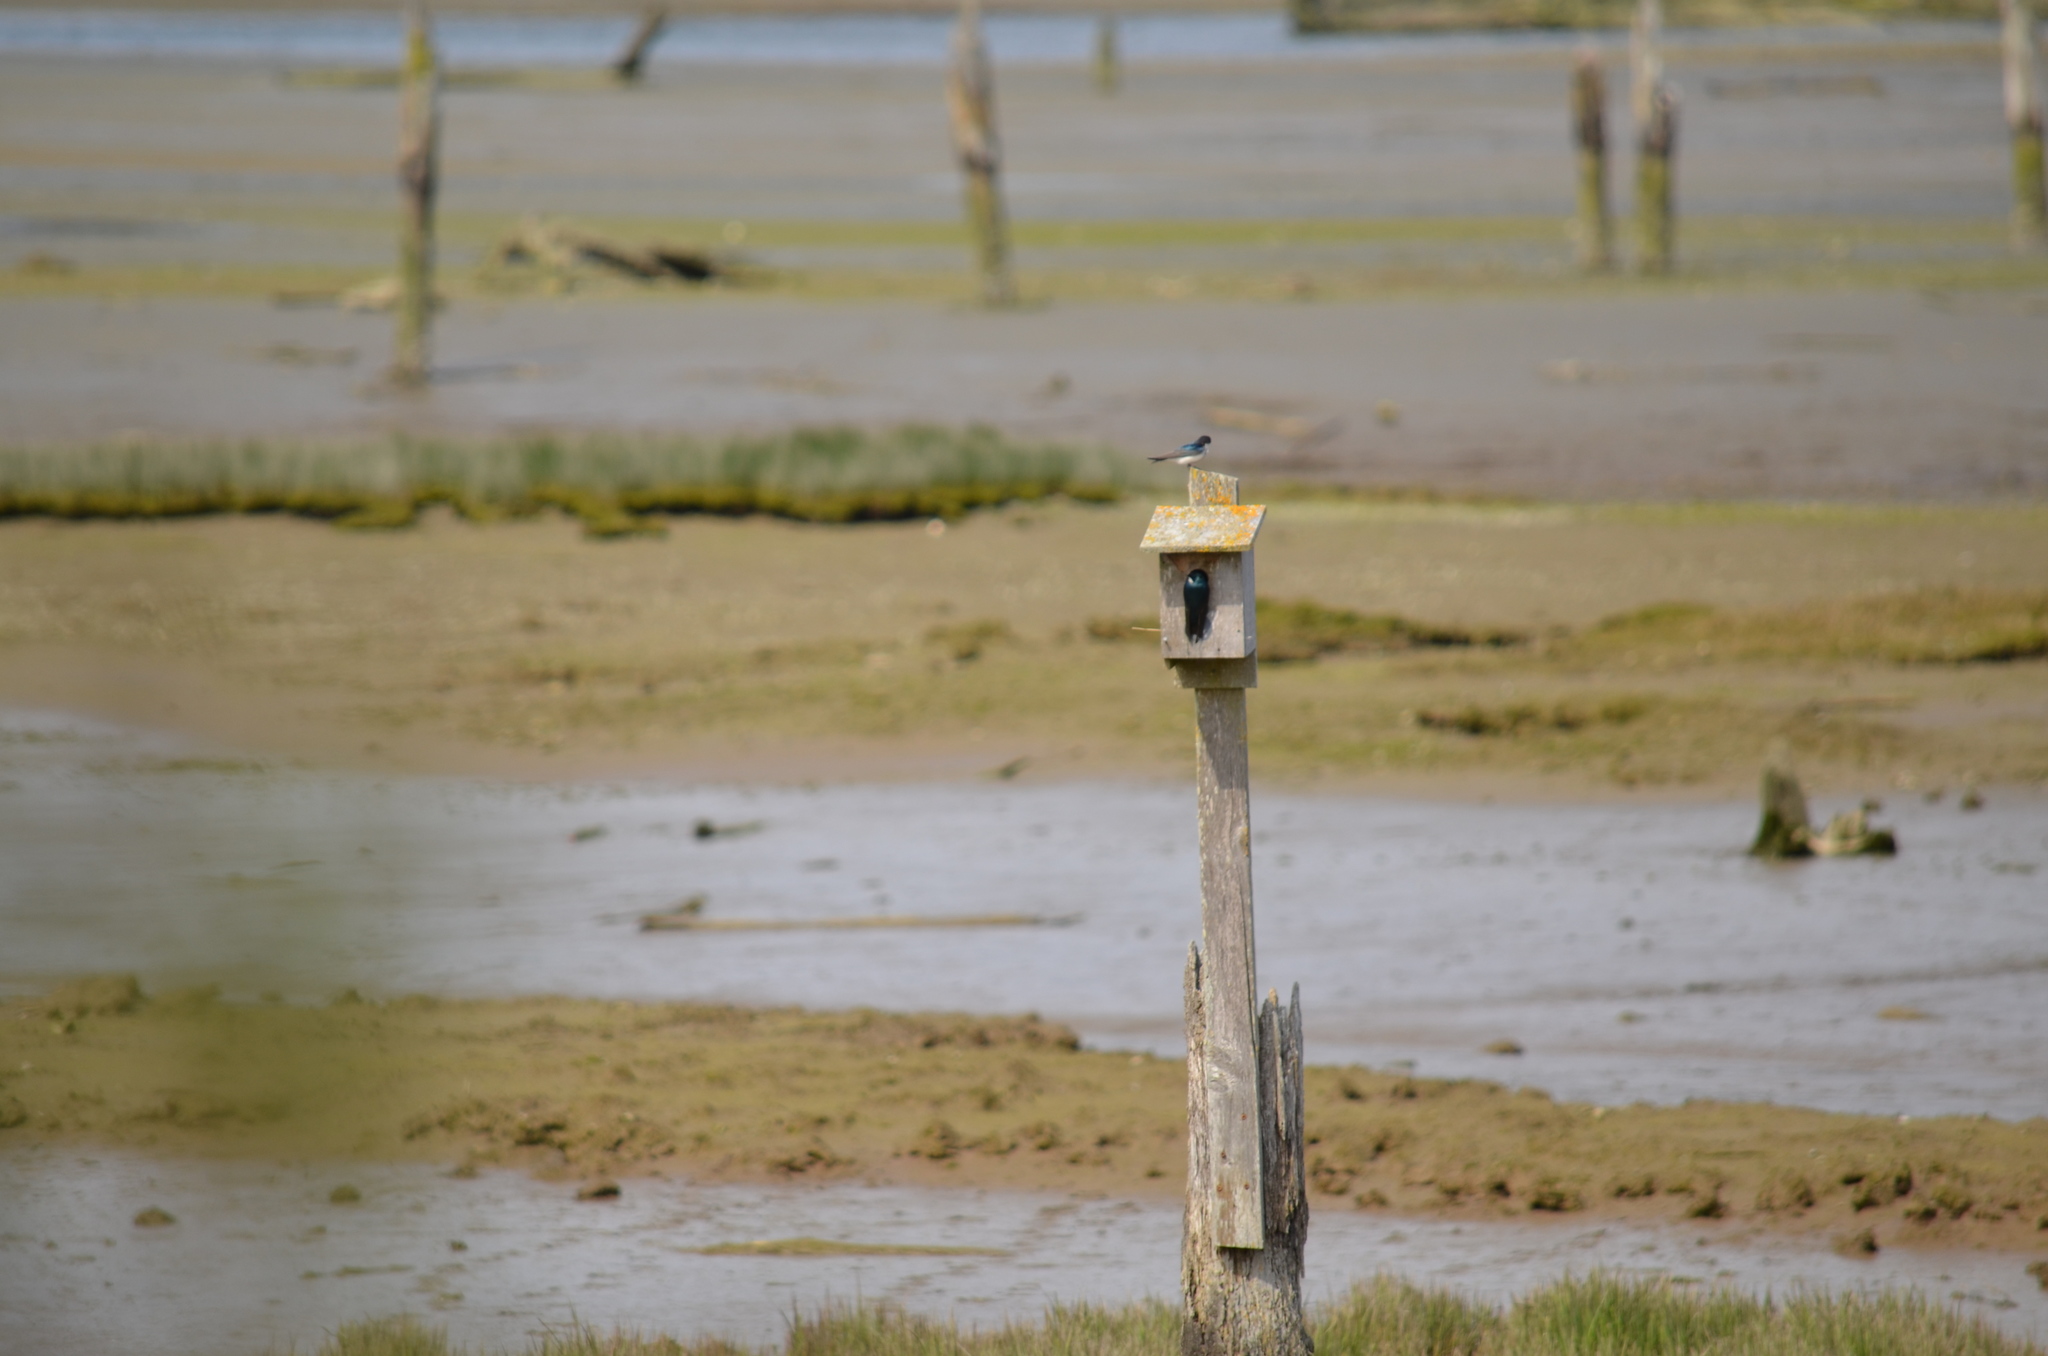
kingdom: Animalia
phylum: Chordata
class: Aves
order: Passeriformes
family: Hirundinidae
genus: Tachycineta
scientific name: Tachycineta bicolor
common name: Tree swallow
